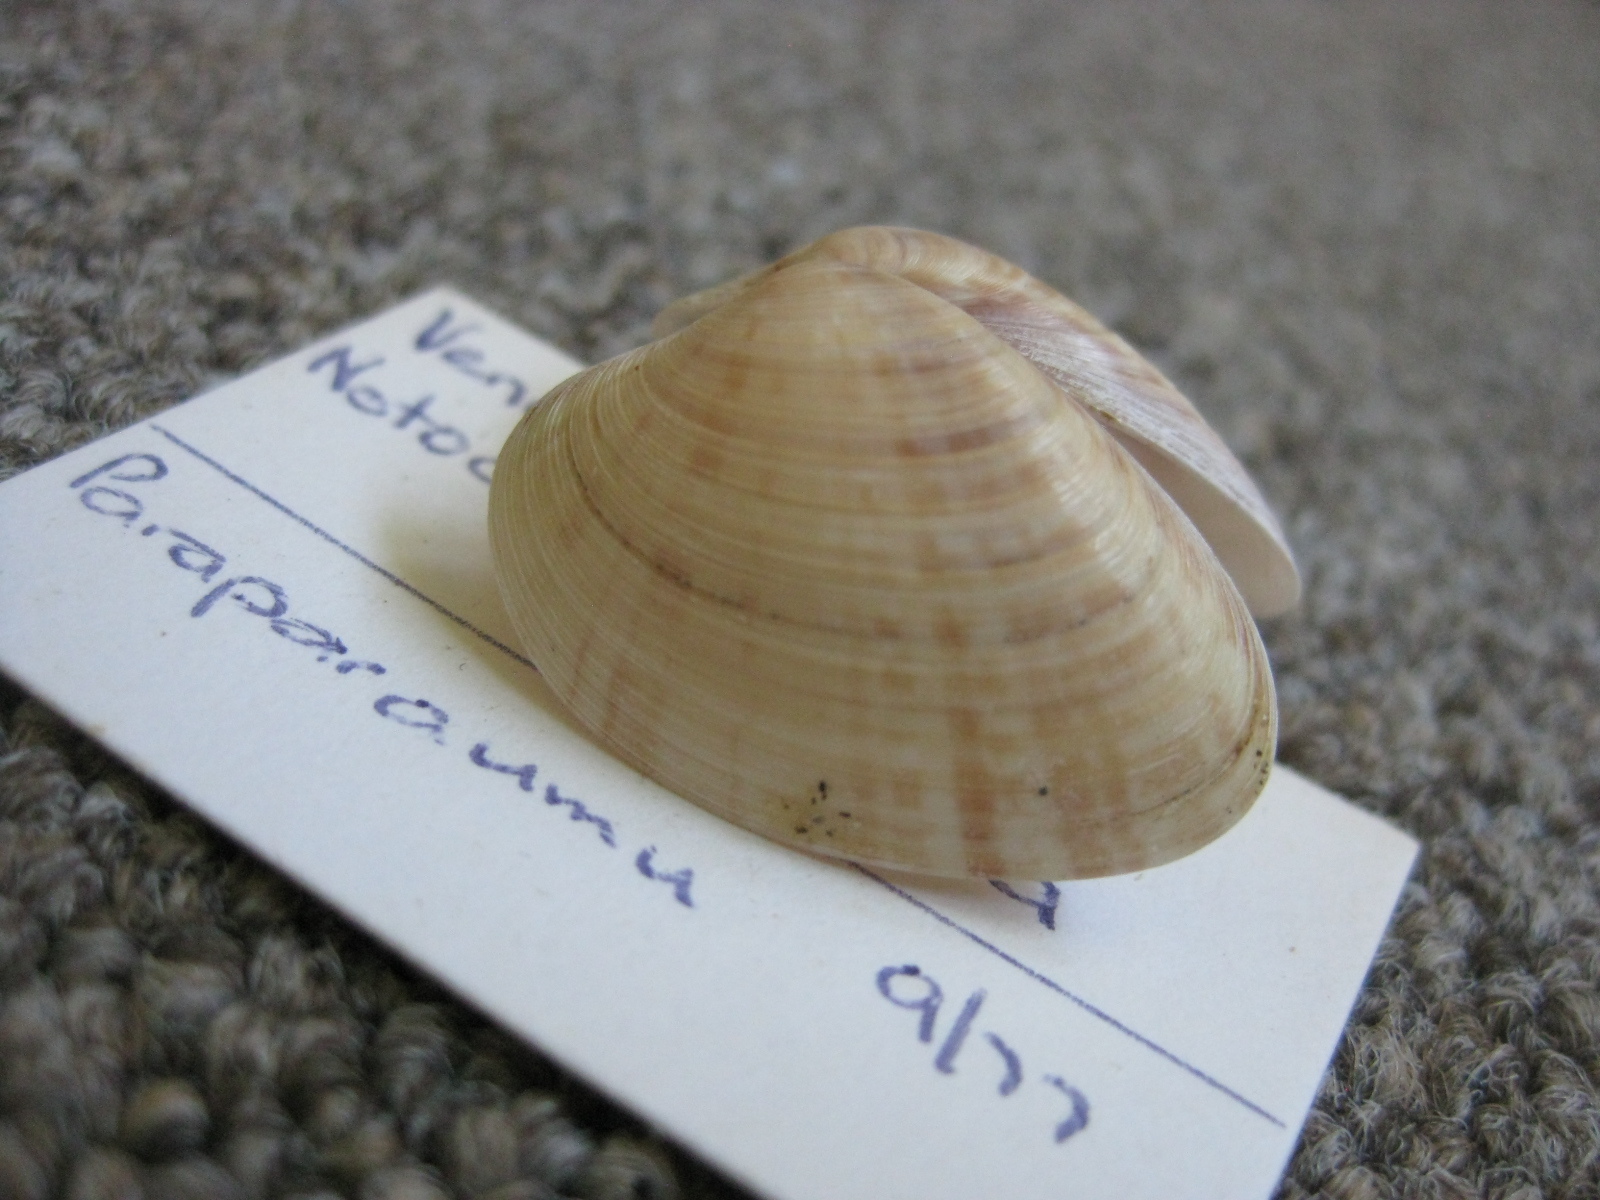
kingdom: Animalia
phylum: Mollusca
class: Bivalvia
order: Venerida
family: Veneridae
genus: Notocallista
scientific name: Notocallista multistriata
